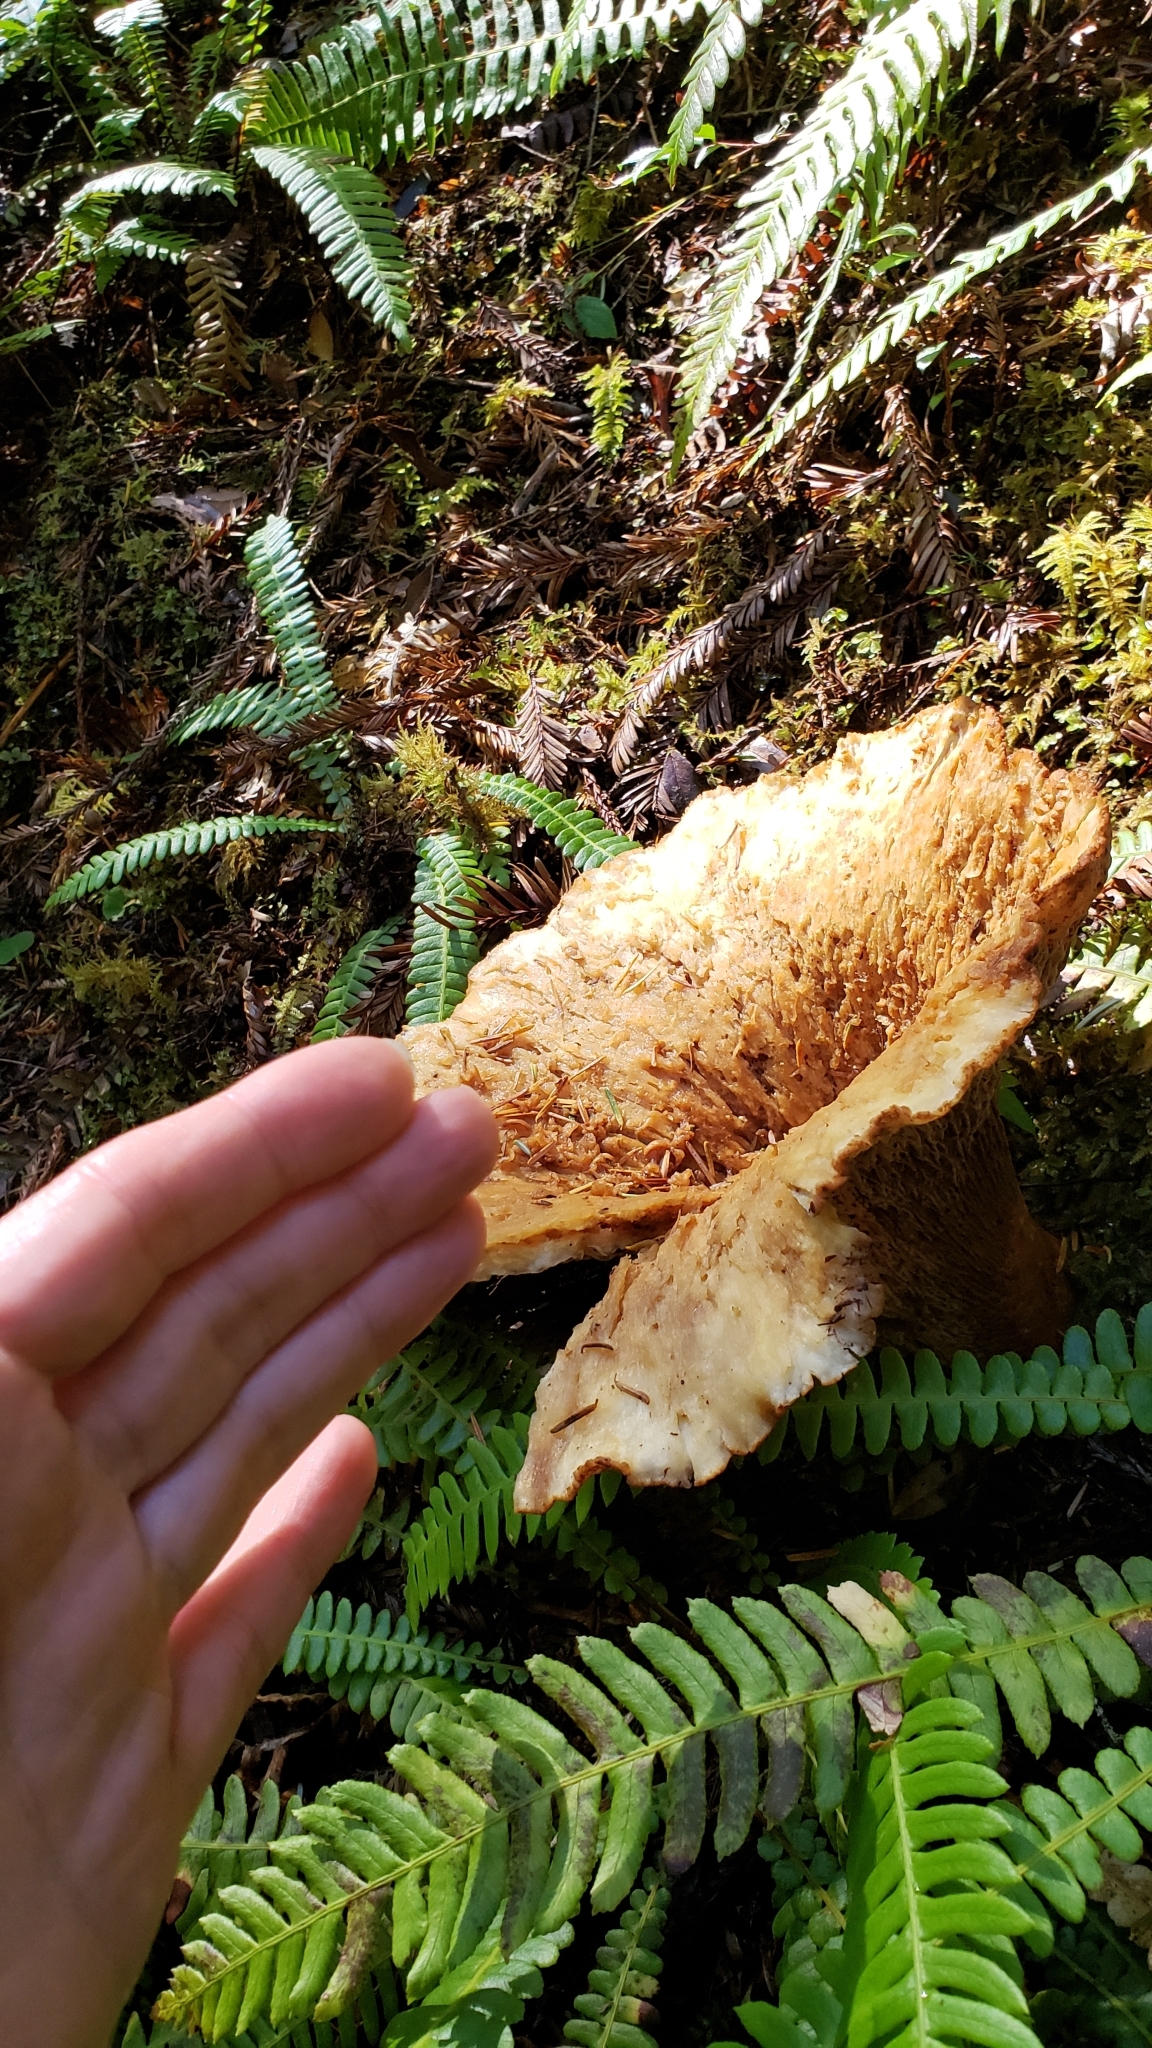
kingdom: Fungi
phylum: Basidiomycota
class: Agaricomycetes
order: Gomphales
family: Gomphaceae
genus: Turbinellus
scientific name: Turbinellus kauffmanii
